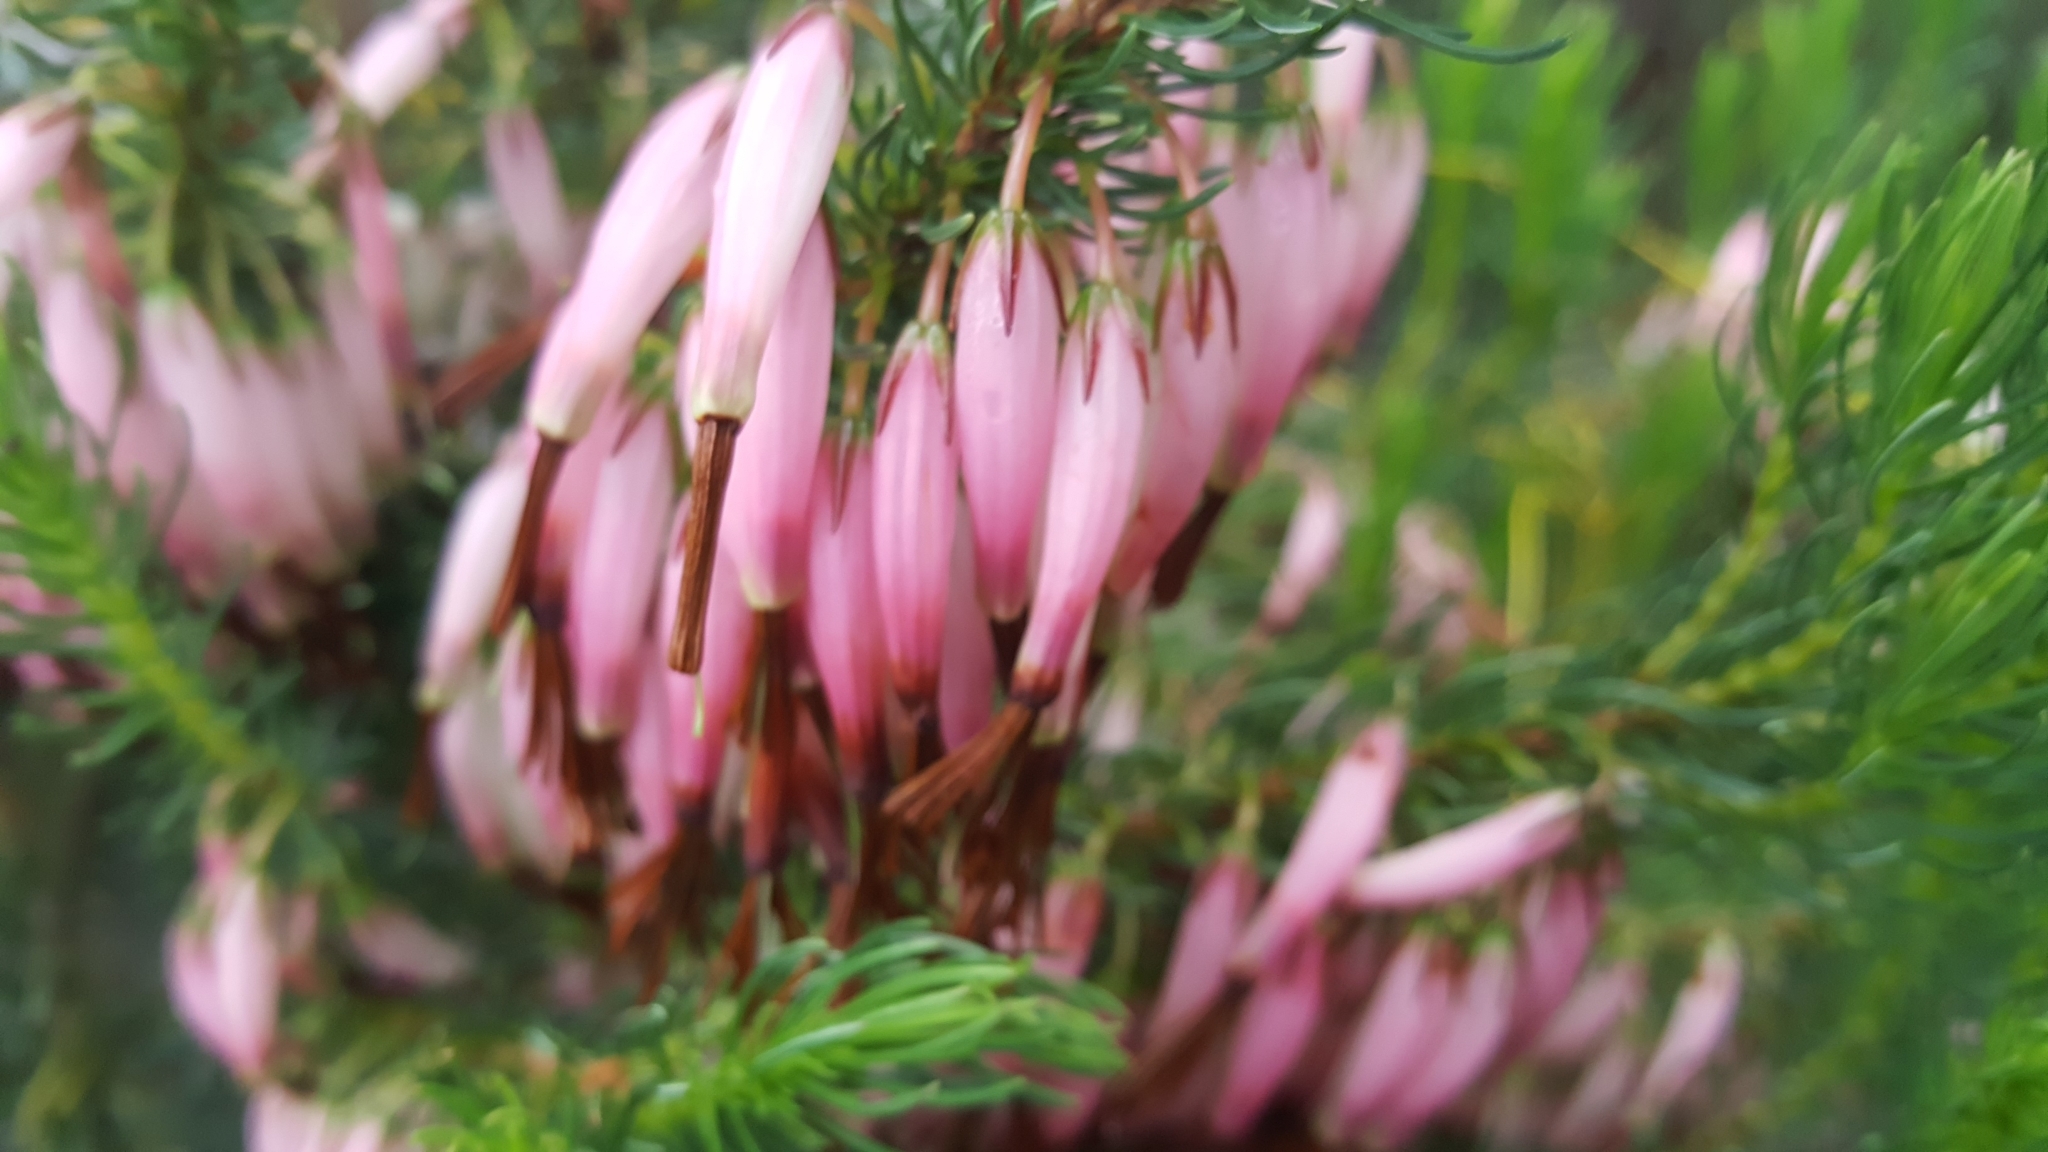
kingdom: Plantae
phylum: Tracheophyta
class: Magnoliopsida
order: Ericales
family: Ericaceae
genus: Erica
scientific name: Erica plukenetii
